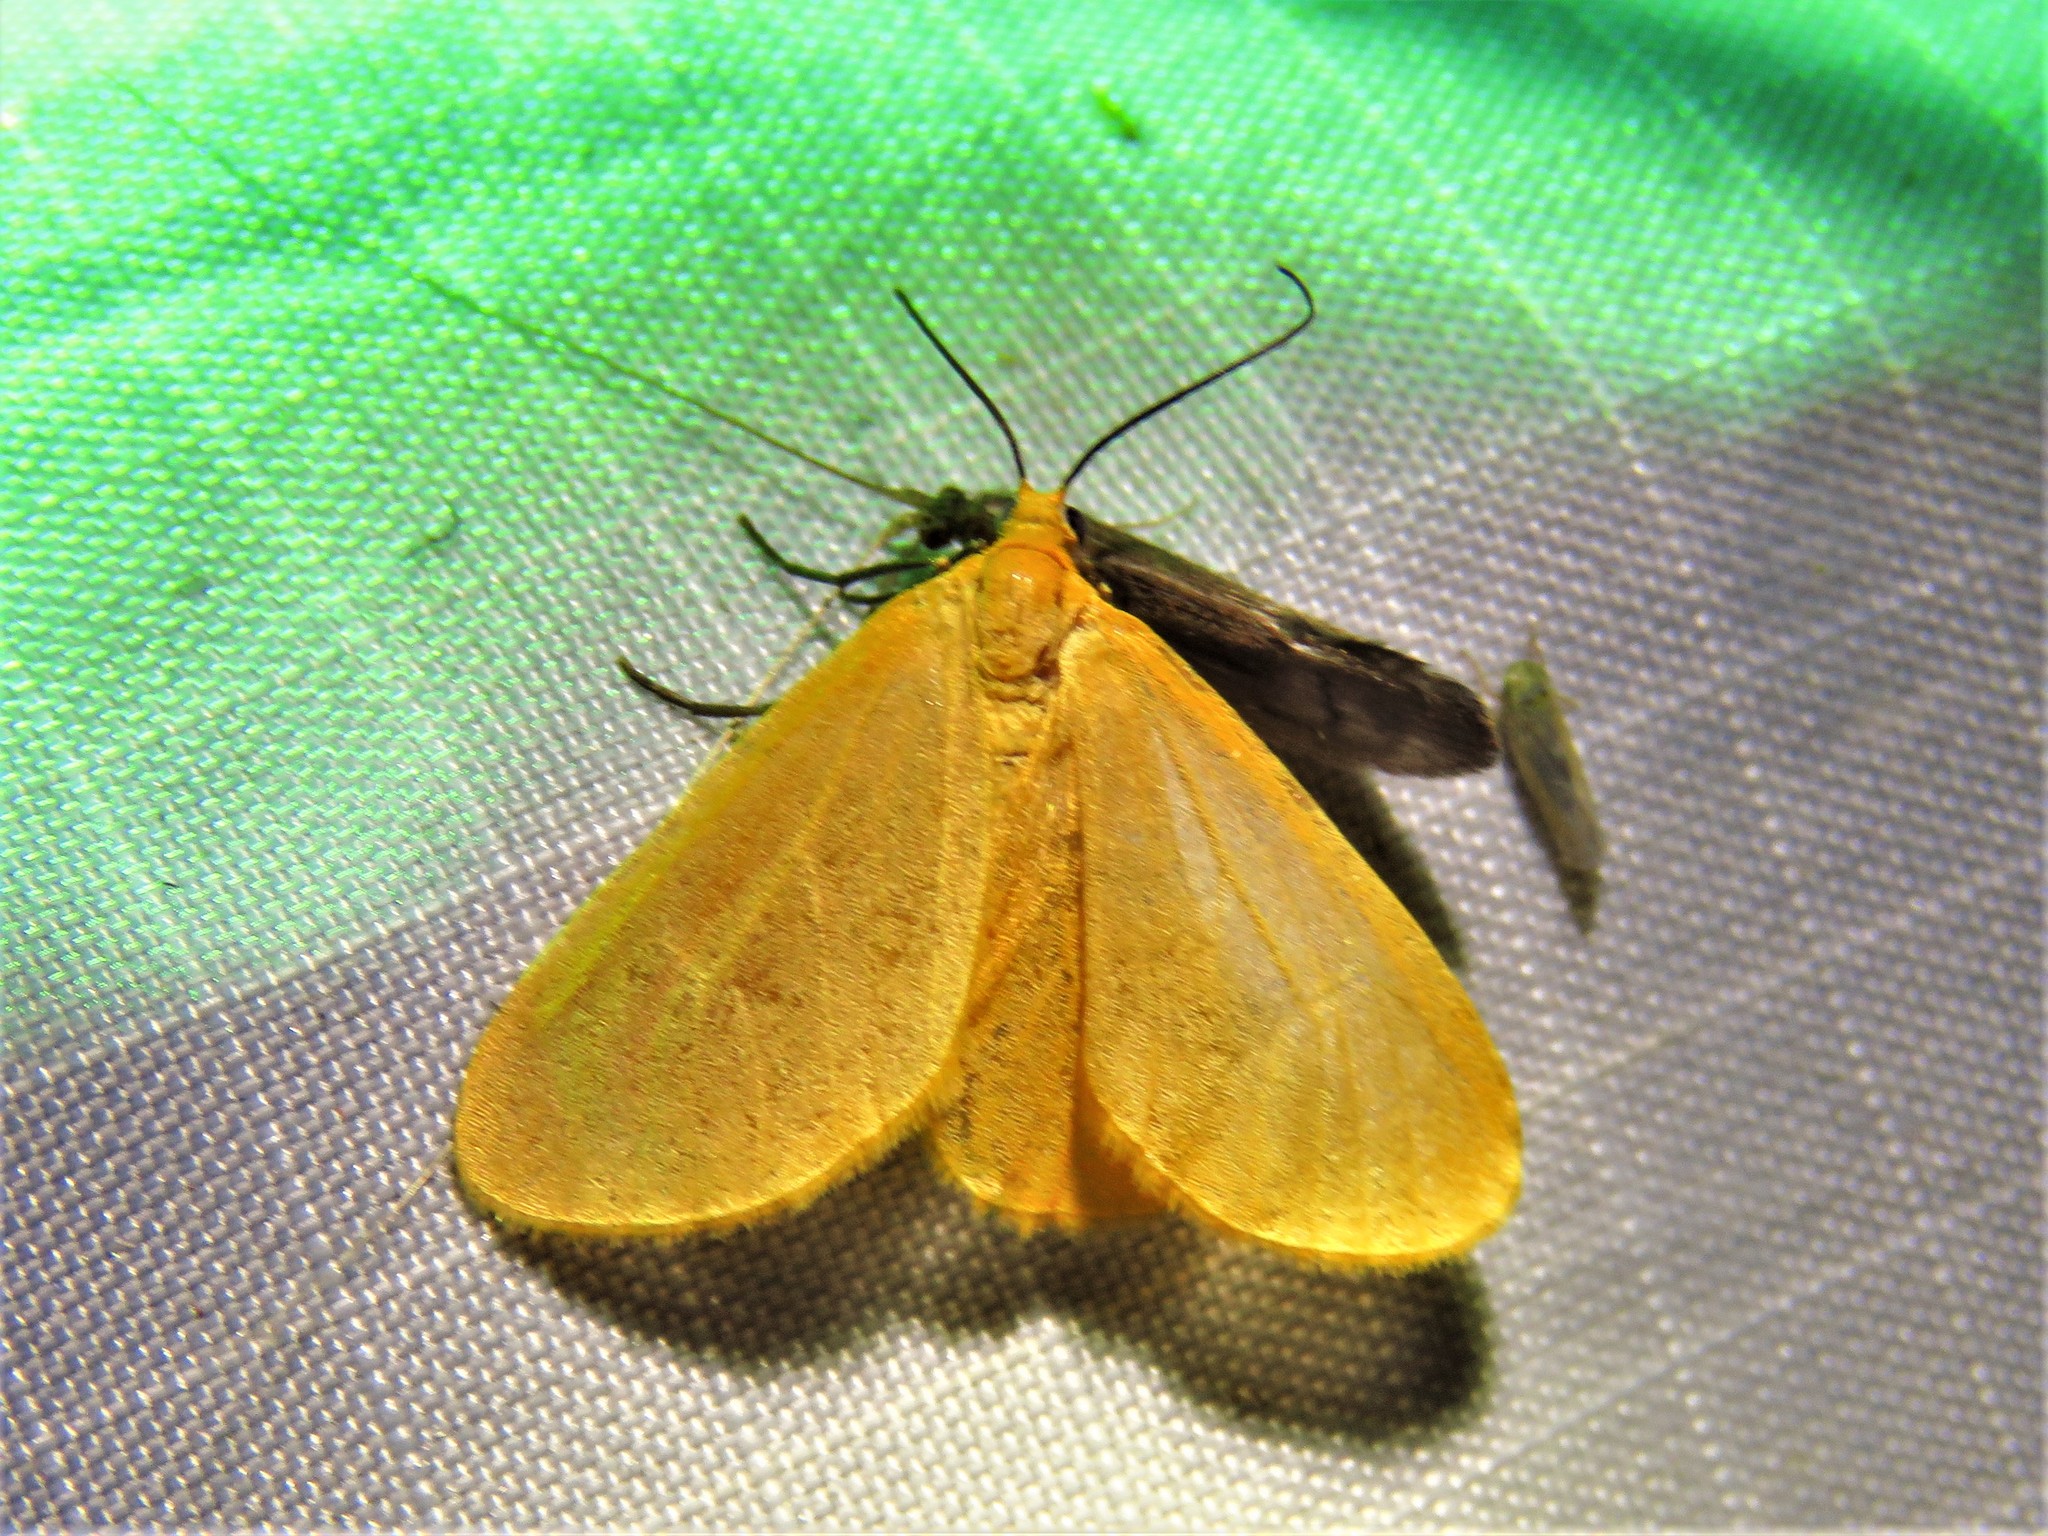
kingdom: Animalia
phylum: Arthropoda
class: Insecta
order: Lepidoptera
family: Geometridae
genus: Eubaphe
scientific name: Eubaphe unicolor
